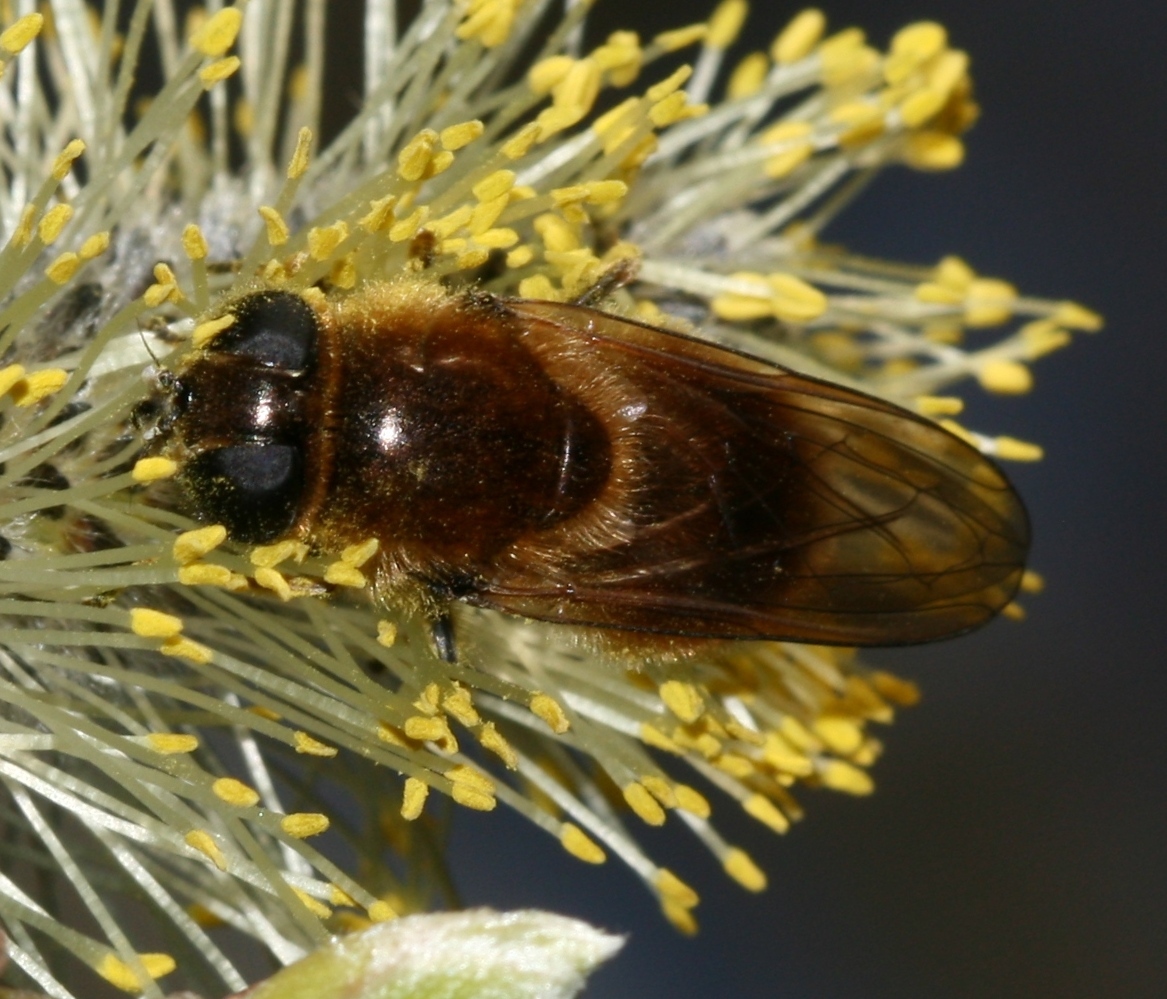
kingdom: Animalia
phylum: Arthropoda
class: Insecta
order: Diptera
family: Syrphidae
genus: Cheilosia
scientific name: Cheilosia corydon
